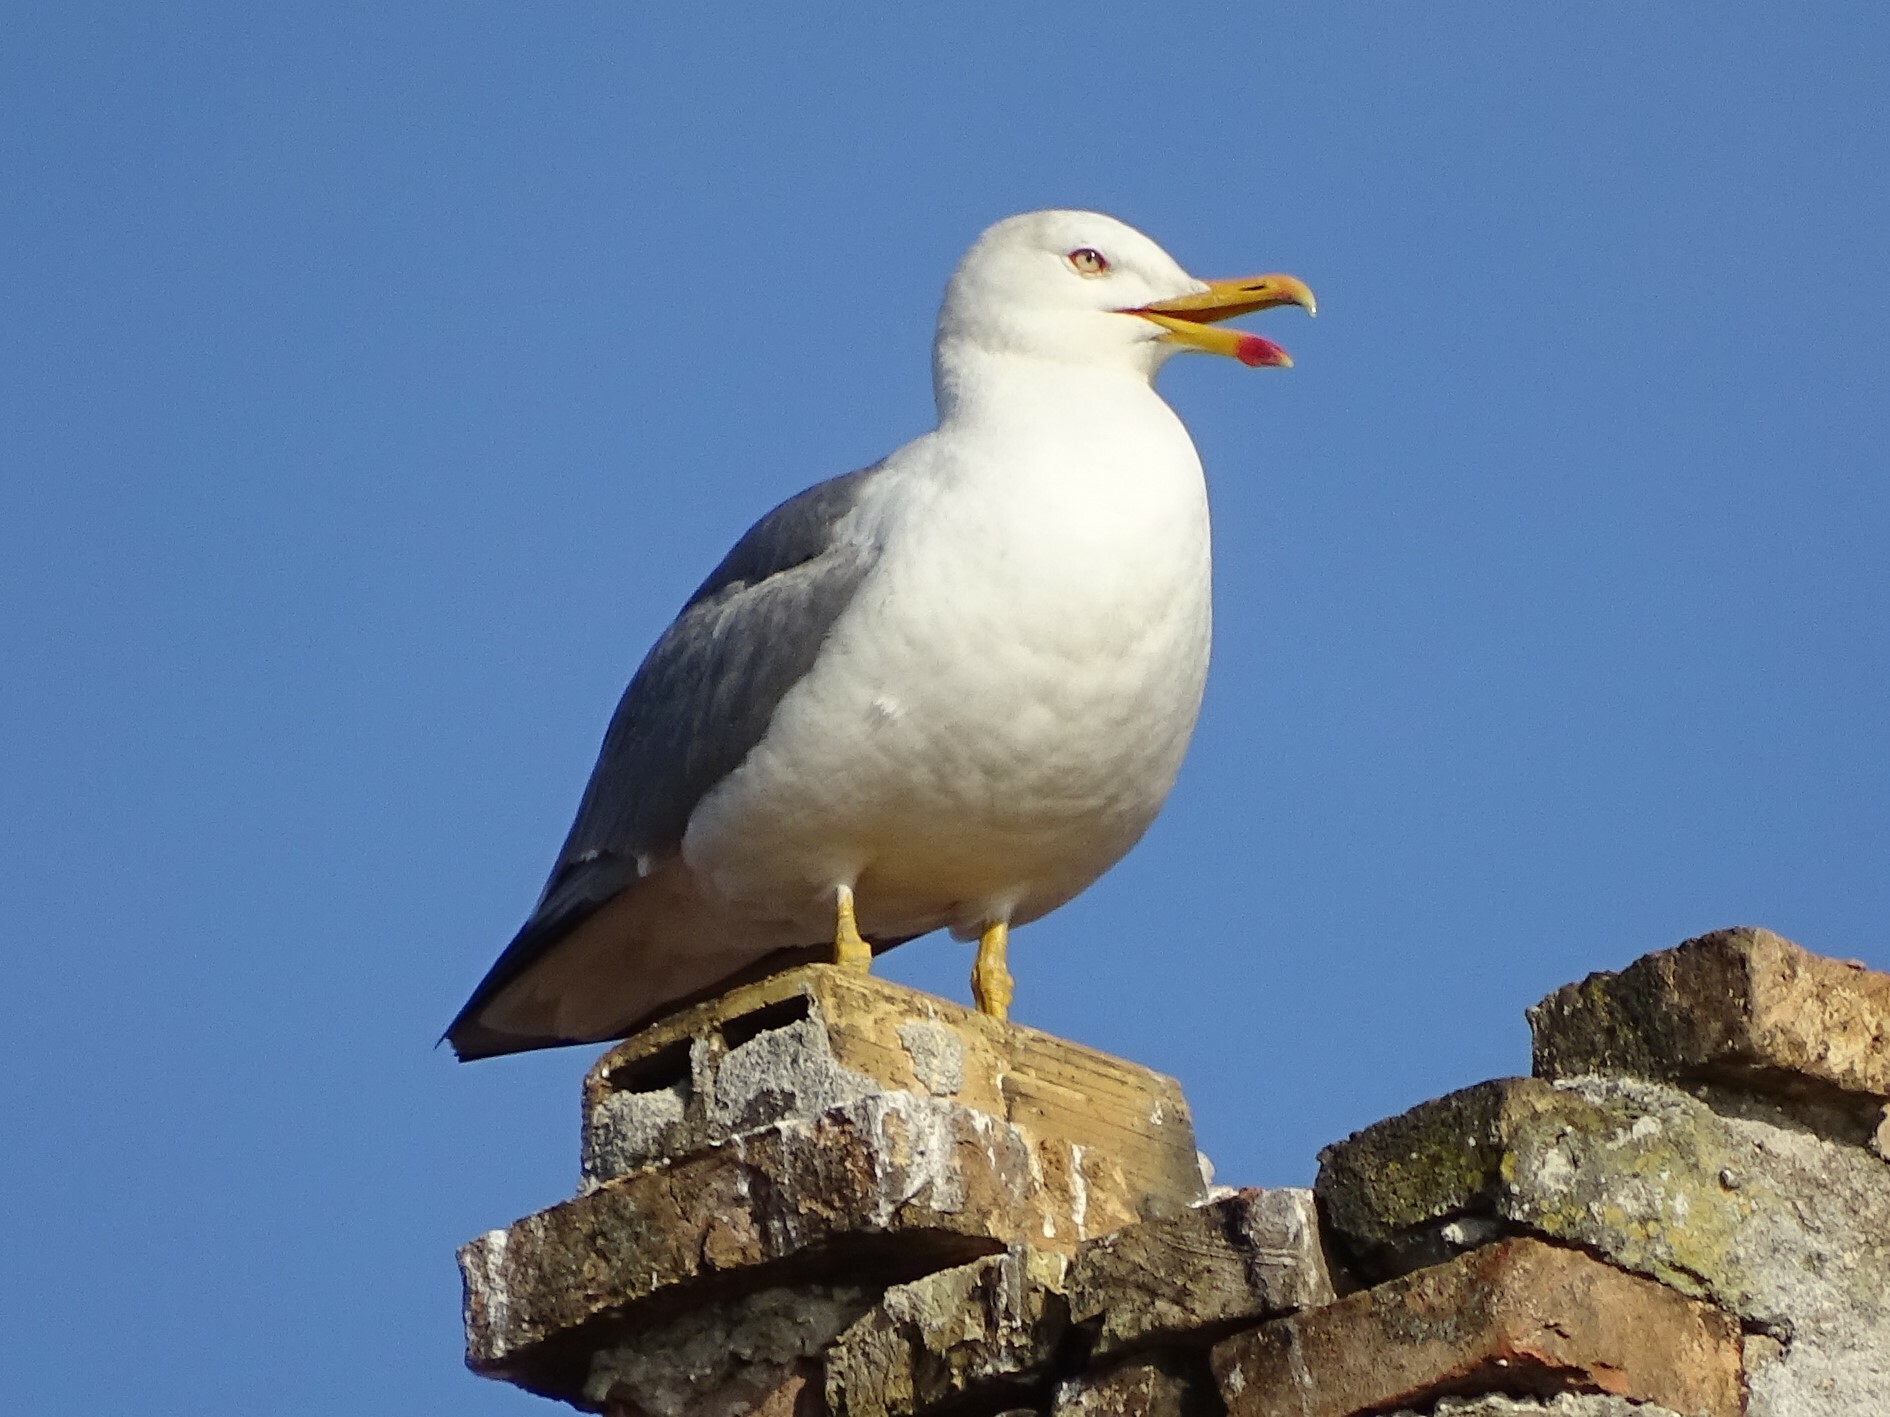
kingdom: Animalia
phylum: Chordata
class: Aves
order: Charadriiformes
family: Laridae
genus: Larus
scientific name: Larus michahellis
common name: Yellow-legged gull
